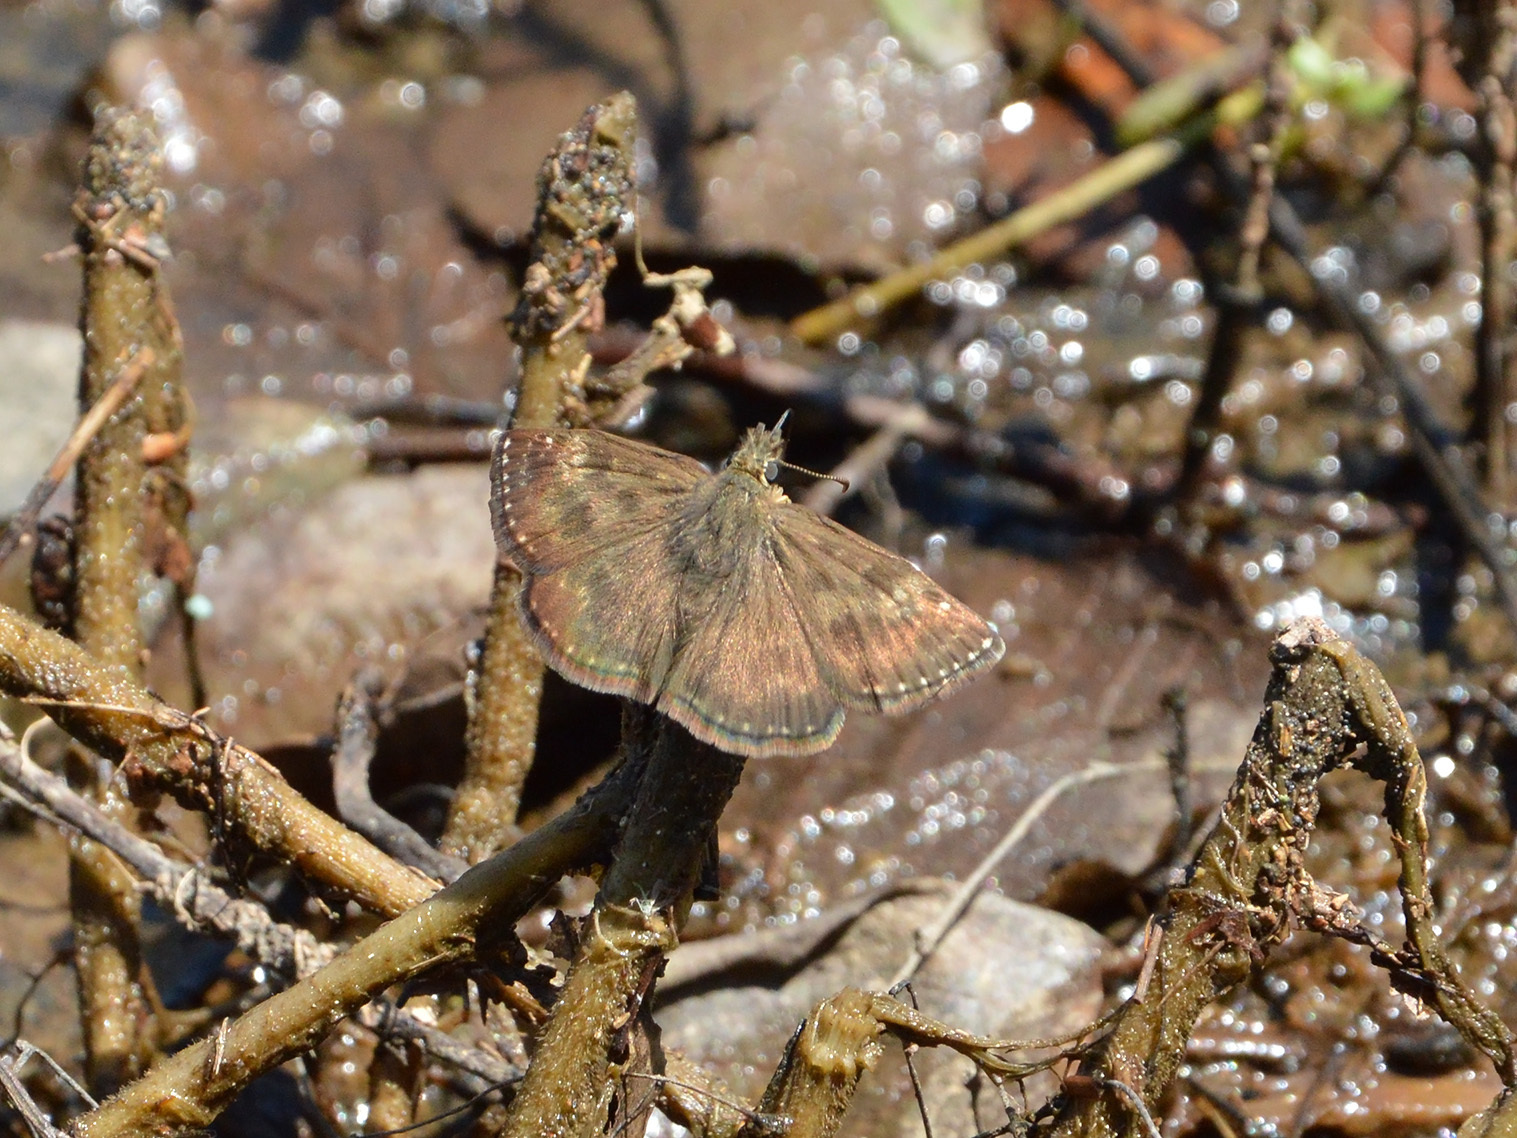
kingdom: Animalia
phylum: Arthropoda
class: Insecta
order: Lepidoptera
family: Hesperiidae
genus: Erynnis
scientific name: Erynnis tages
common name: Dingy skipper
